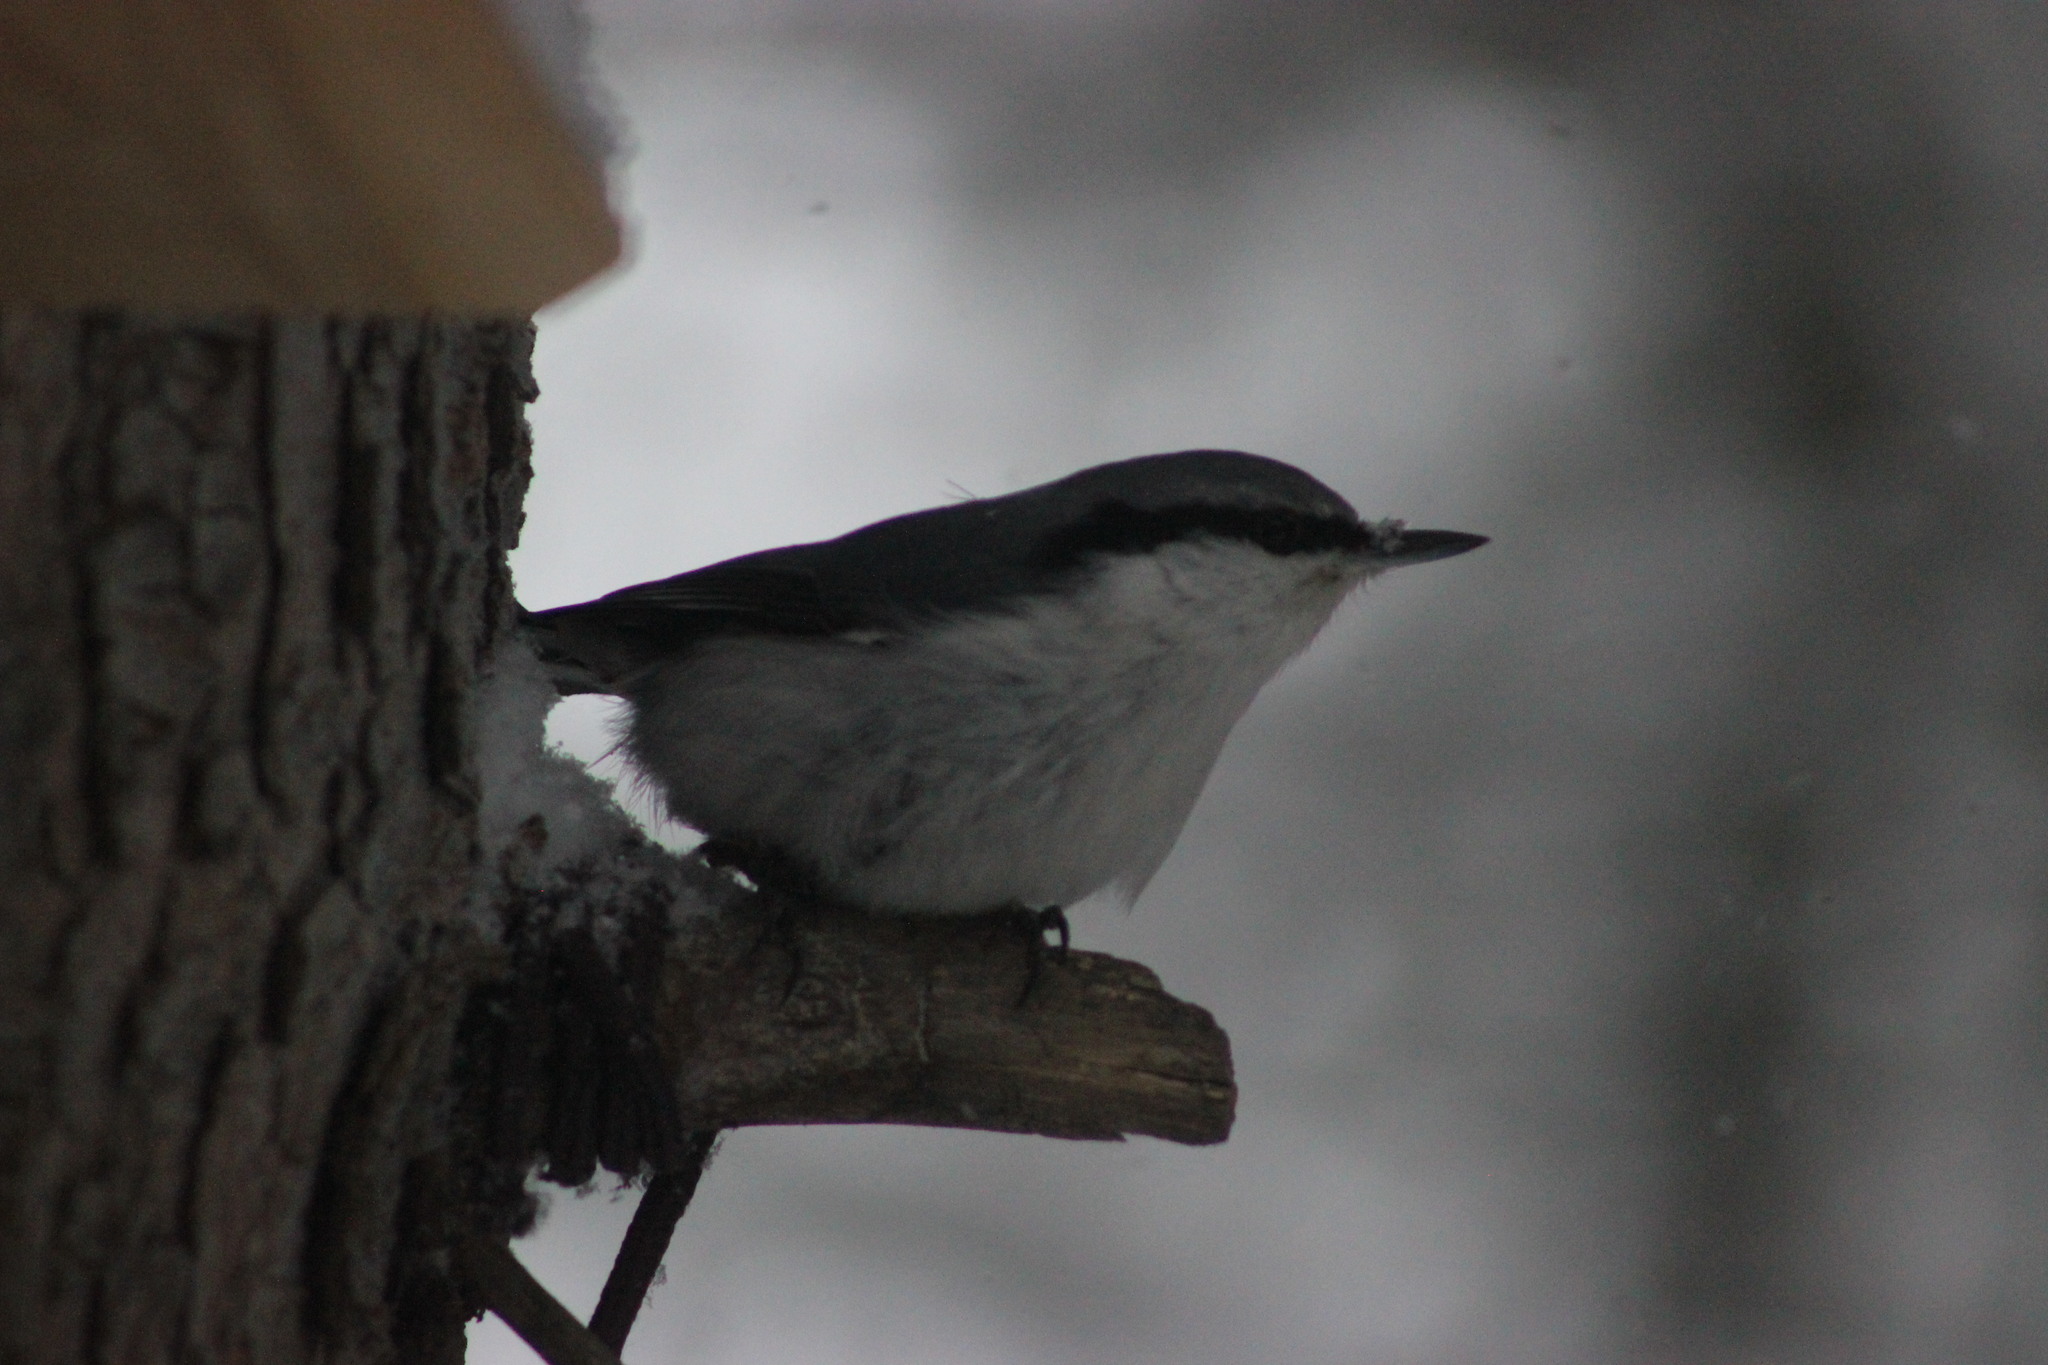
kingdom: Animalia
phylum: Chordata
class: Aves
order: Passeriformes
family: Sittidae
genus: Sitta
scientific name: Sitta europaea
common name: Eurasian nuthatch
